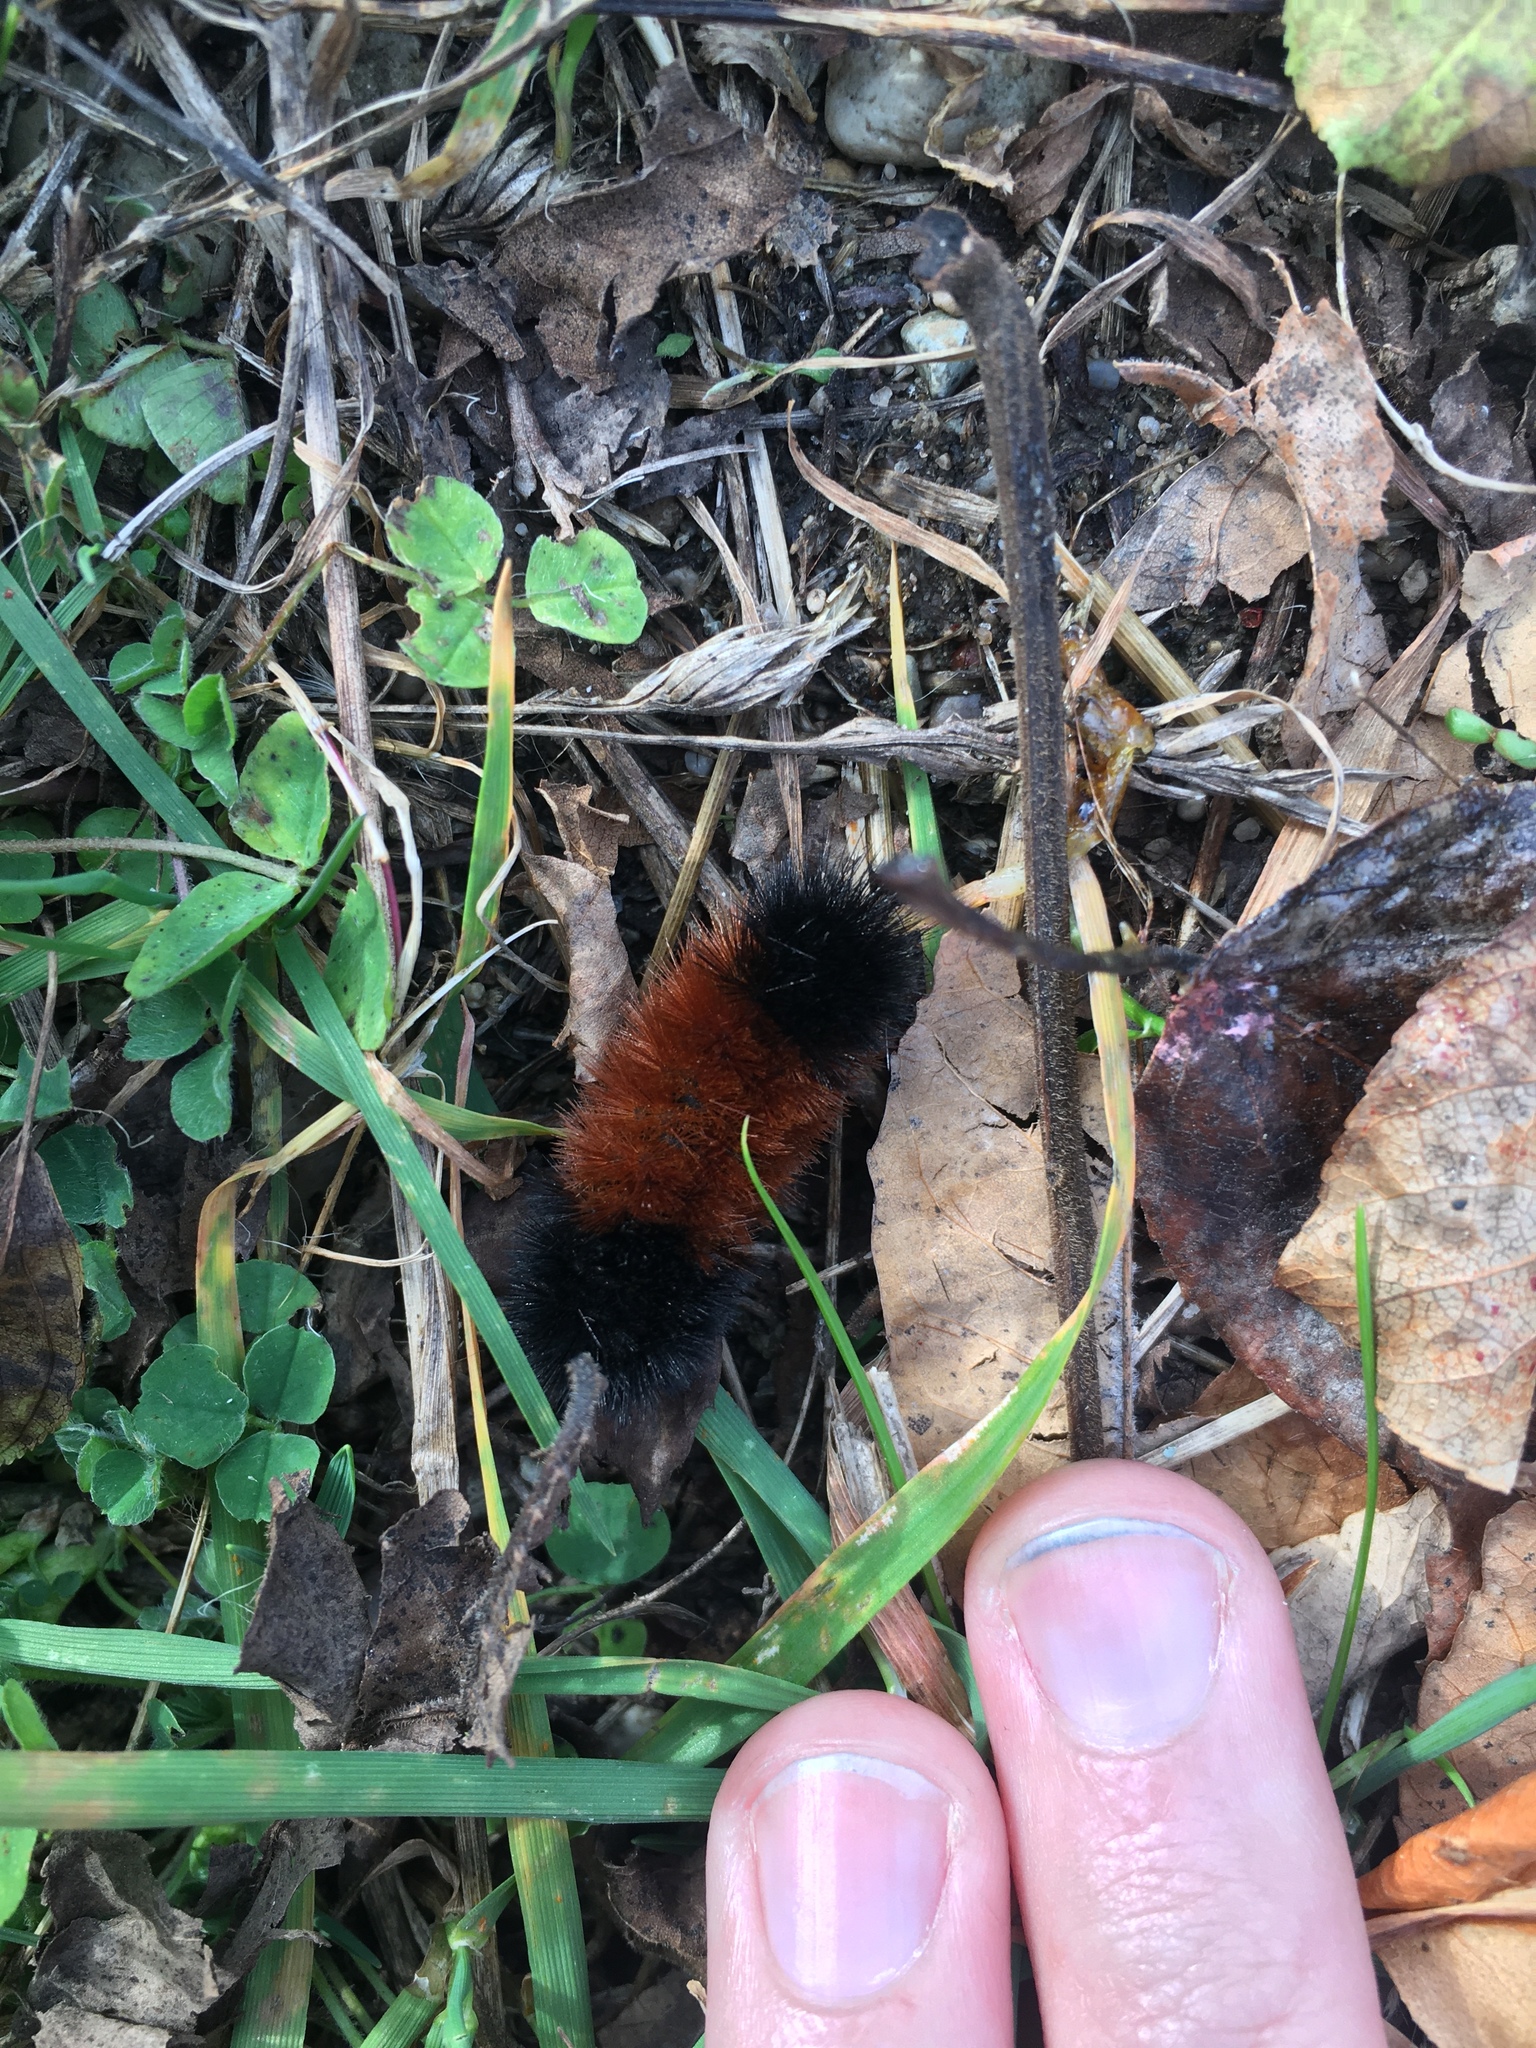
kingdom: Animalia
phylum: Arthropoda
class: Insecta
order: Lepidoptera
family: Erebidae
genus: Pyrrharctia
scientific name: Pyrrharctia isabella
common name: Isabella tiger moth
